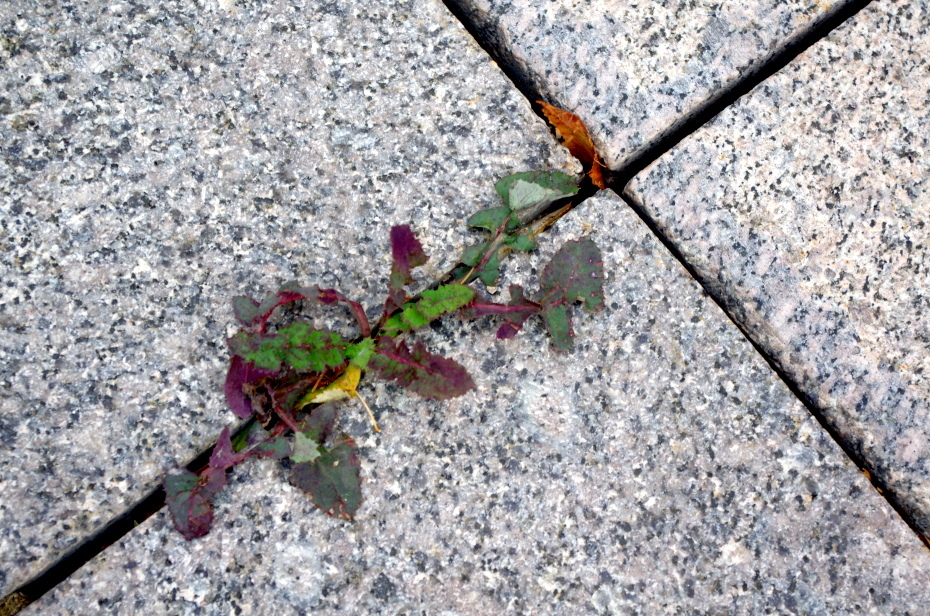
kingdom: Plantae
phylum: Tracheophyta
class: Magnoliopsida
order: Asterales
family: Asteraceae
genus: Sonchus
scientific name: Sonchus oleraceus
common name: Common sowthistle
